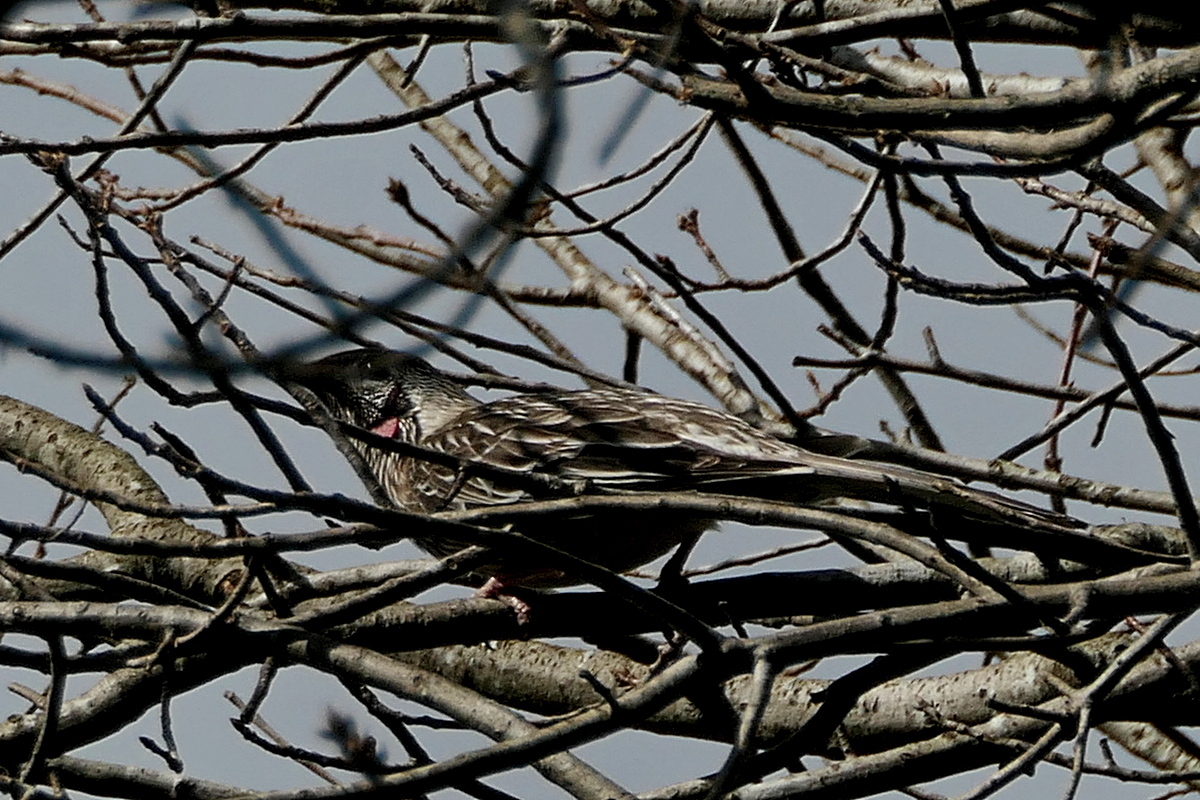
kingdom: Animalia
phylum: Chordata
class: Aves
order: Passeriformes
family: Meliphagidae
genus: Anthochaera
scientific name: Anthochaera carunculata
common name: Red wattlebird
